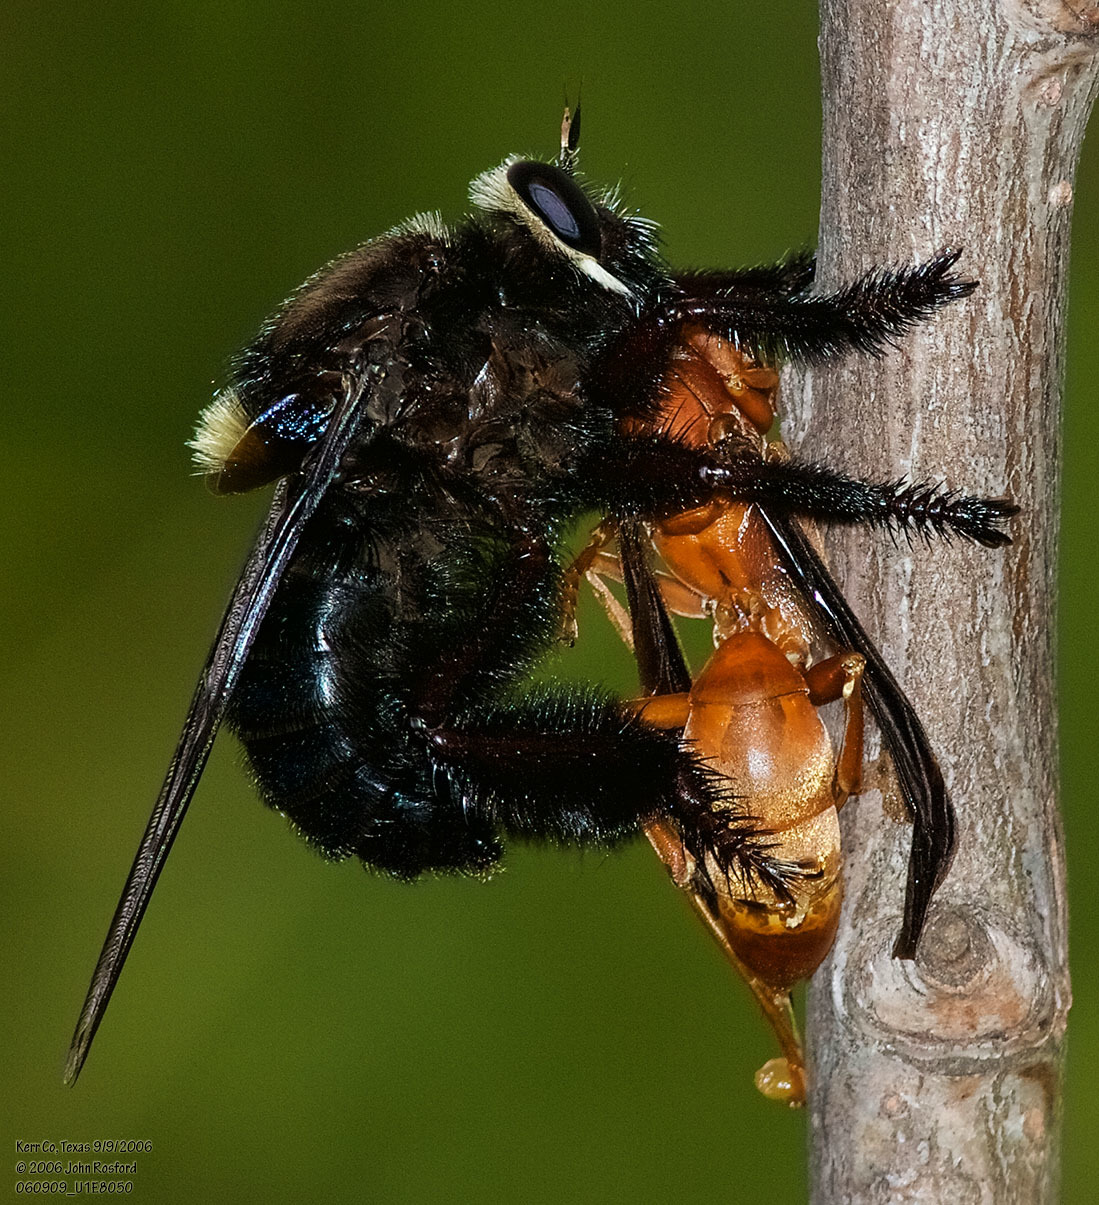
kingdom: Animalia
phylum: Arthropoda
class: Insecta
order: Diptera
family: Asilidae
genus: Mallophora
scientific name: Mallophora leschenaultii
